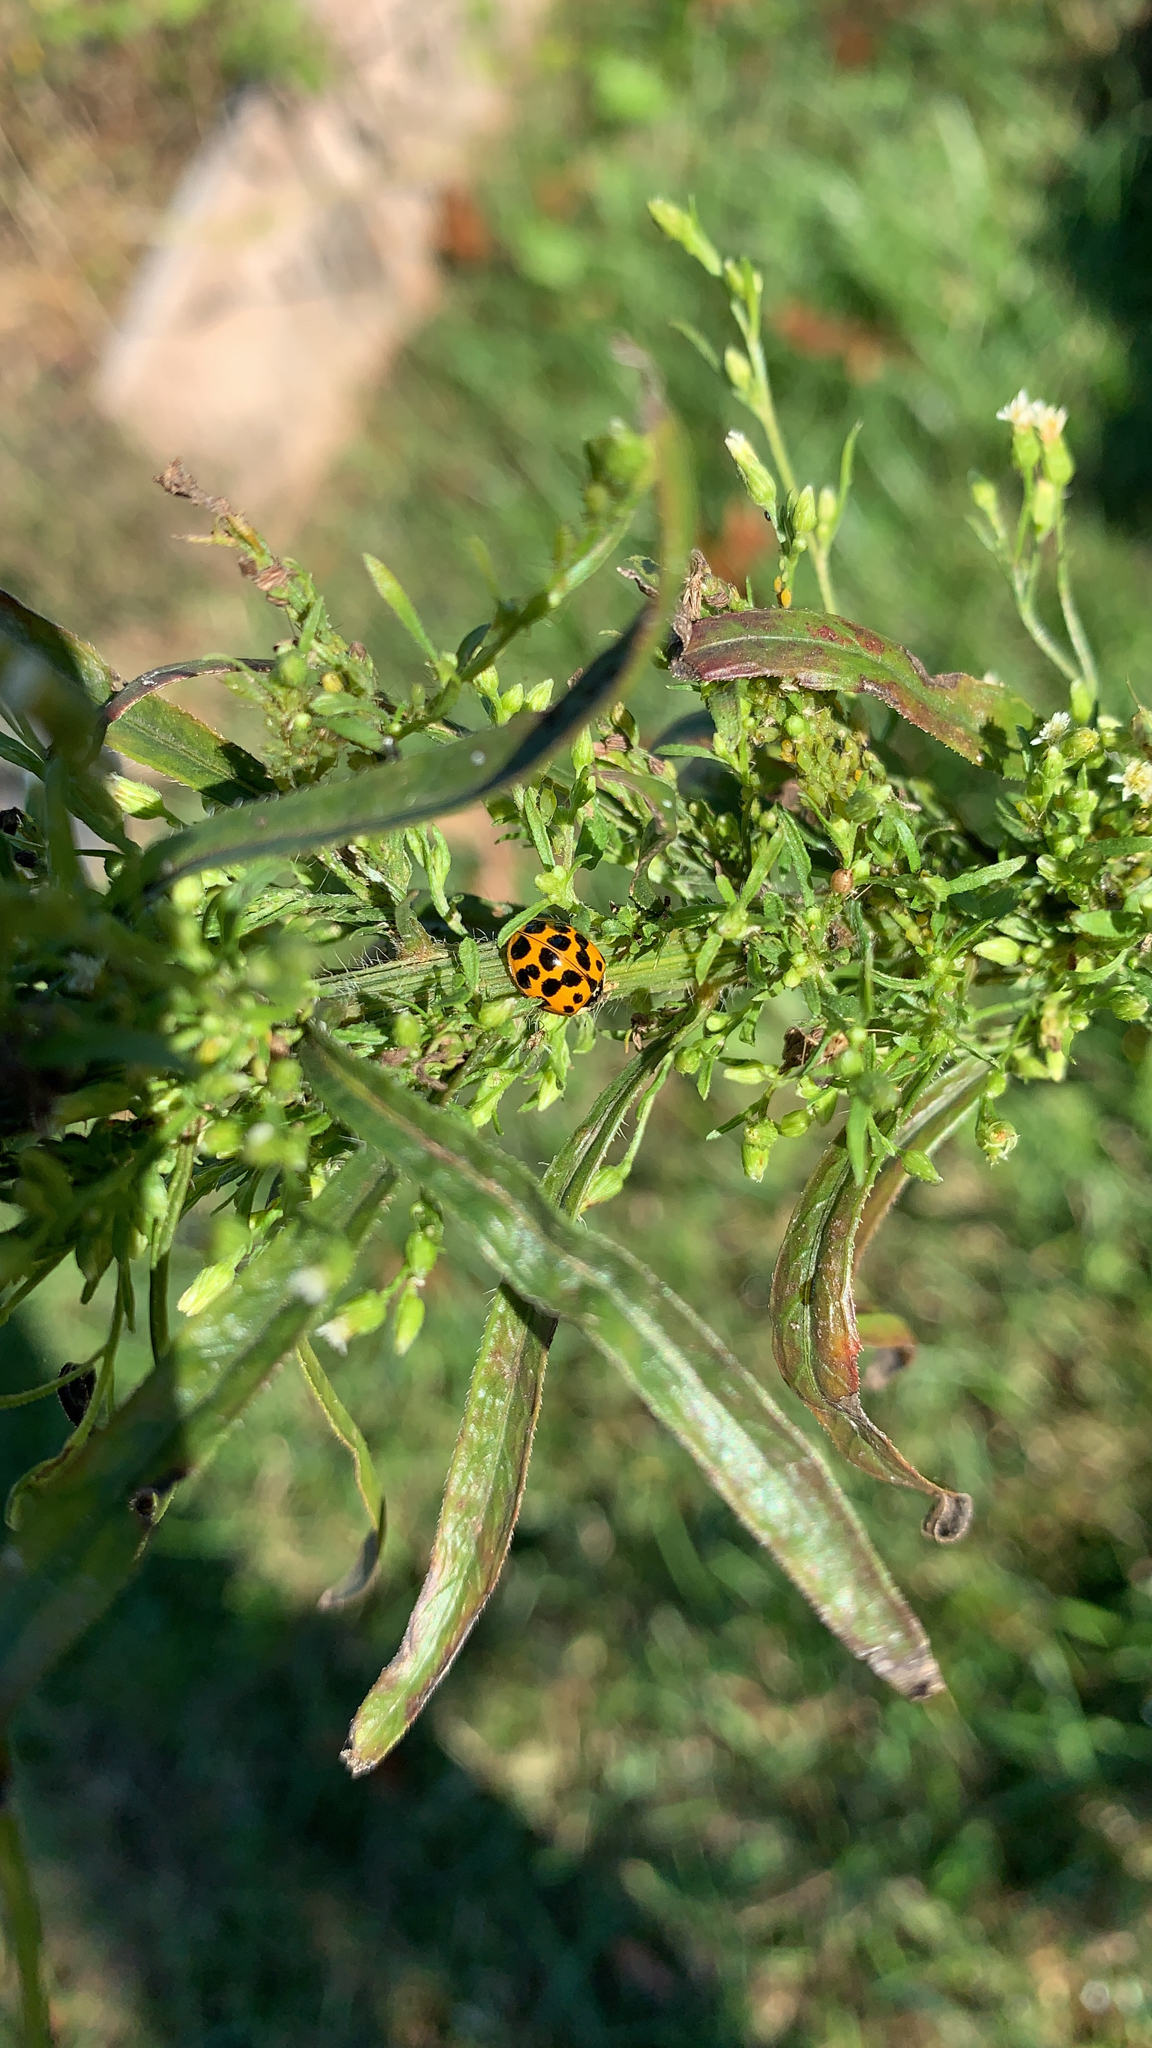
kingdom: Animalia
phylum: Arthropoda
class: Insecta
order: Coleoptera
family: Coccinellidae
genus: Harmonia
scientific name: Harmonia axyridis
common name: Harlequin ladybird
